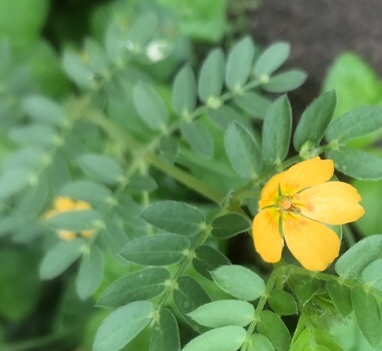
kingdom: Plantae
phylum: Tracheophyta
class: Magnoliopsida
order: Zygophyllales
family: Zygophyllaceae
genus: Kallstroemia
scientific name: Kallstroemia parviflora
